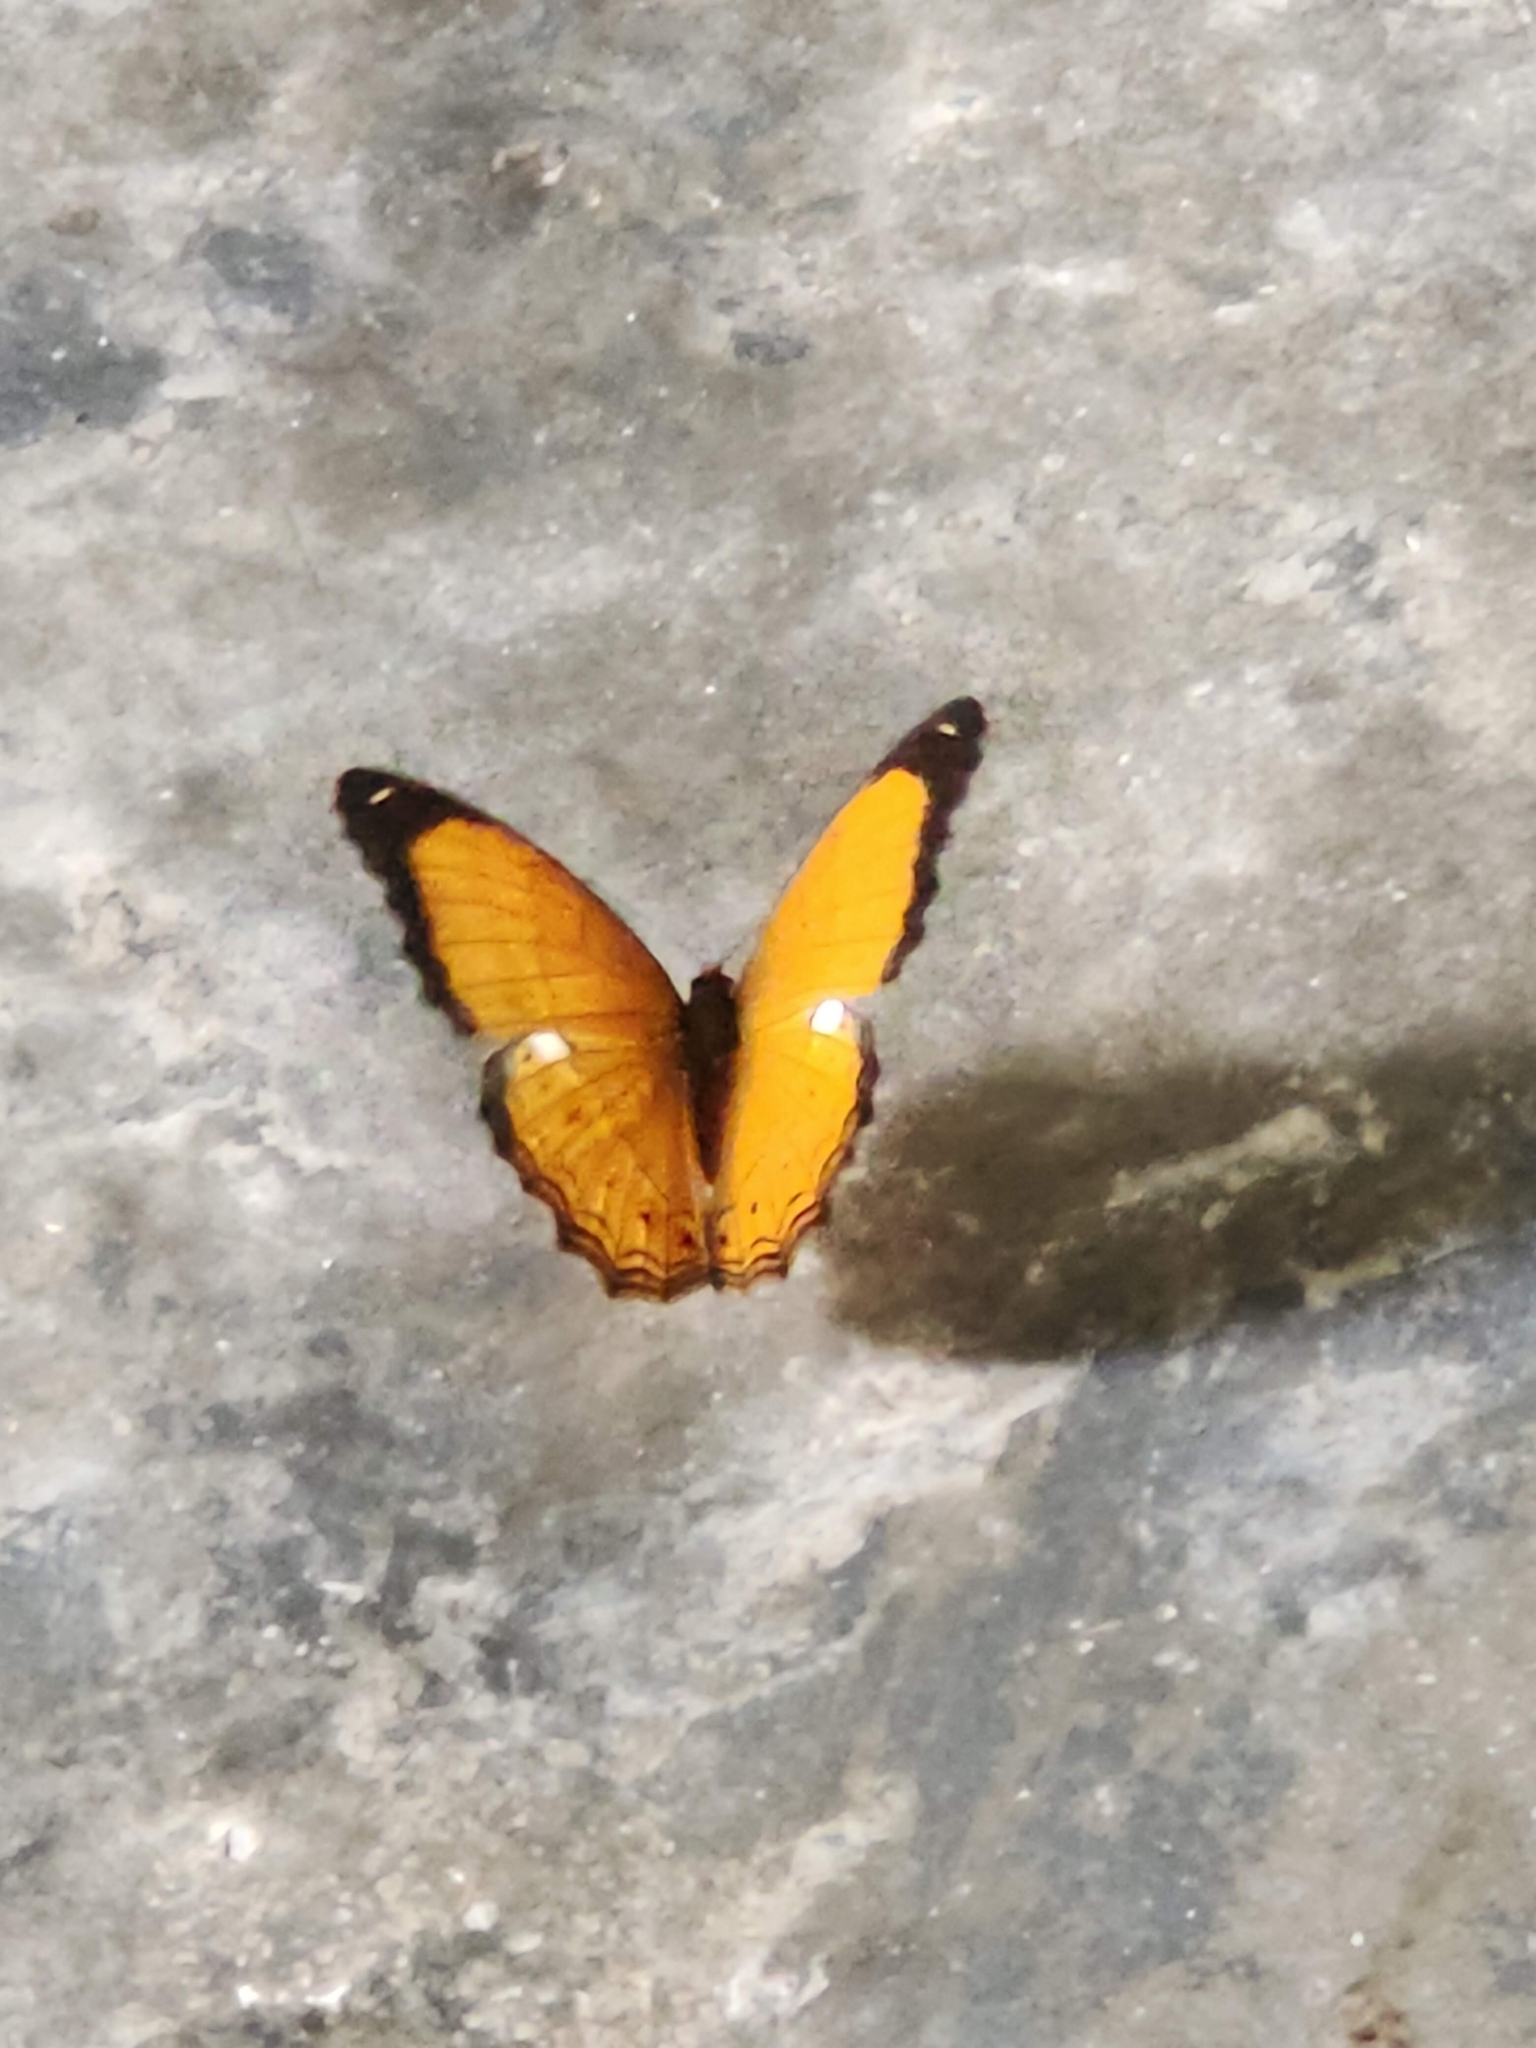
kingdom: Animalia
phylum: Arthropoda
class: Insecta
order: Lepidoptera
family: Nymphalidae
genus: Cirrochroa
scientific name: Cirrochroa emalea
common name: Malay yeoman
